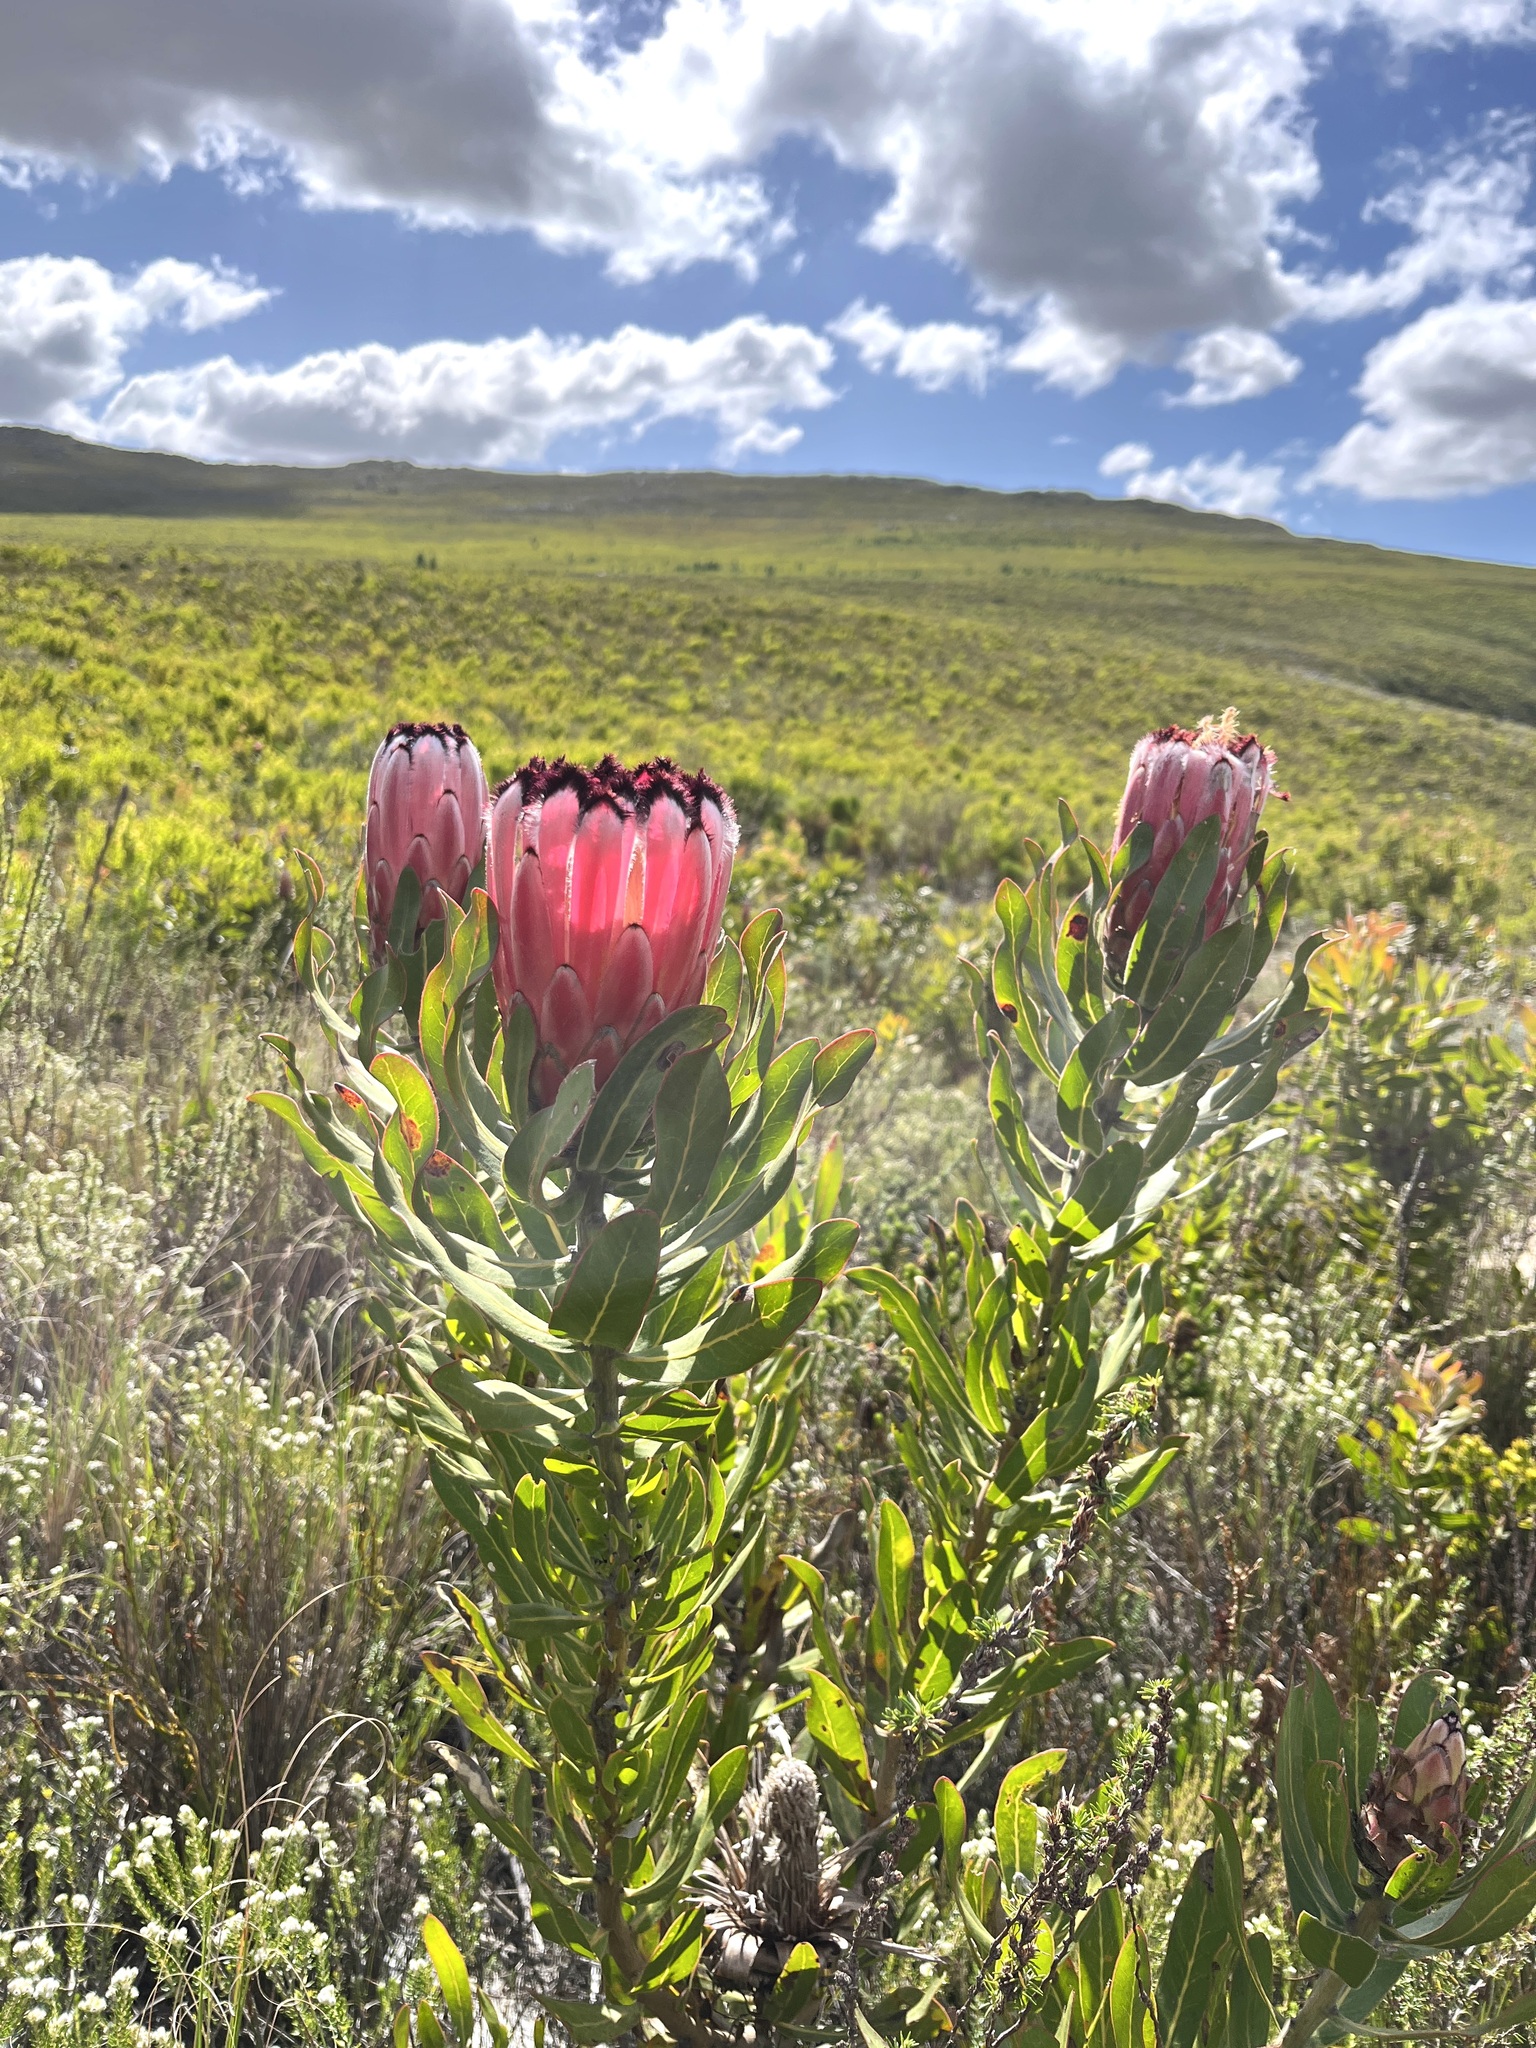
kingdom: Plantae
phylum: Tracheophyta
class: Magnoliopsida
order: Proteales
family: Proteaceae
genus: Protea
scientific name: Protea neriifolia
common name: Blue sugarbush
